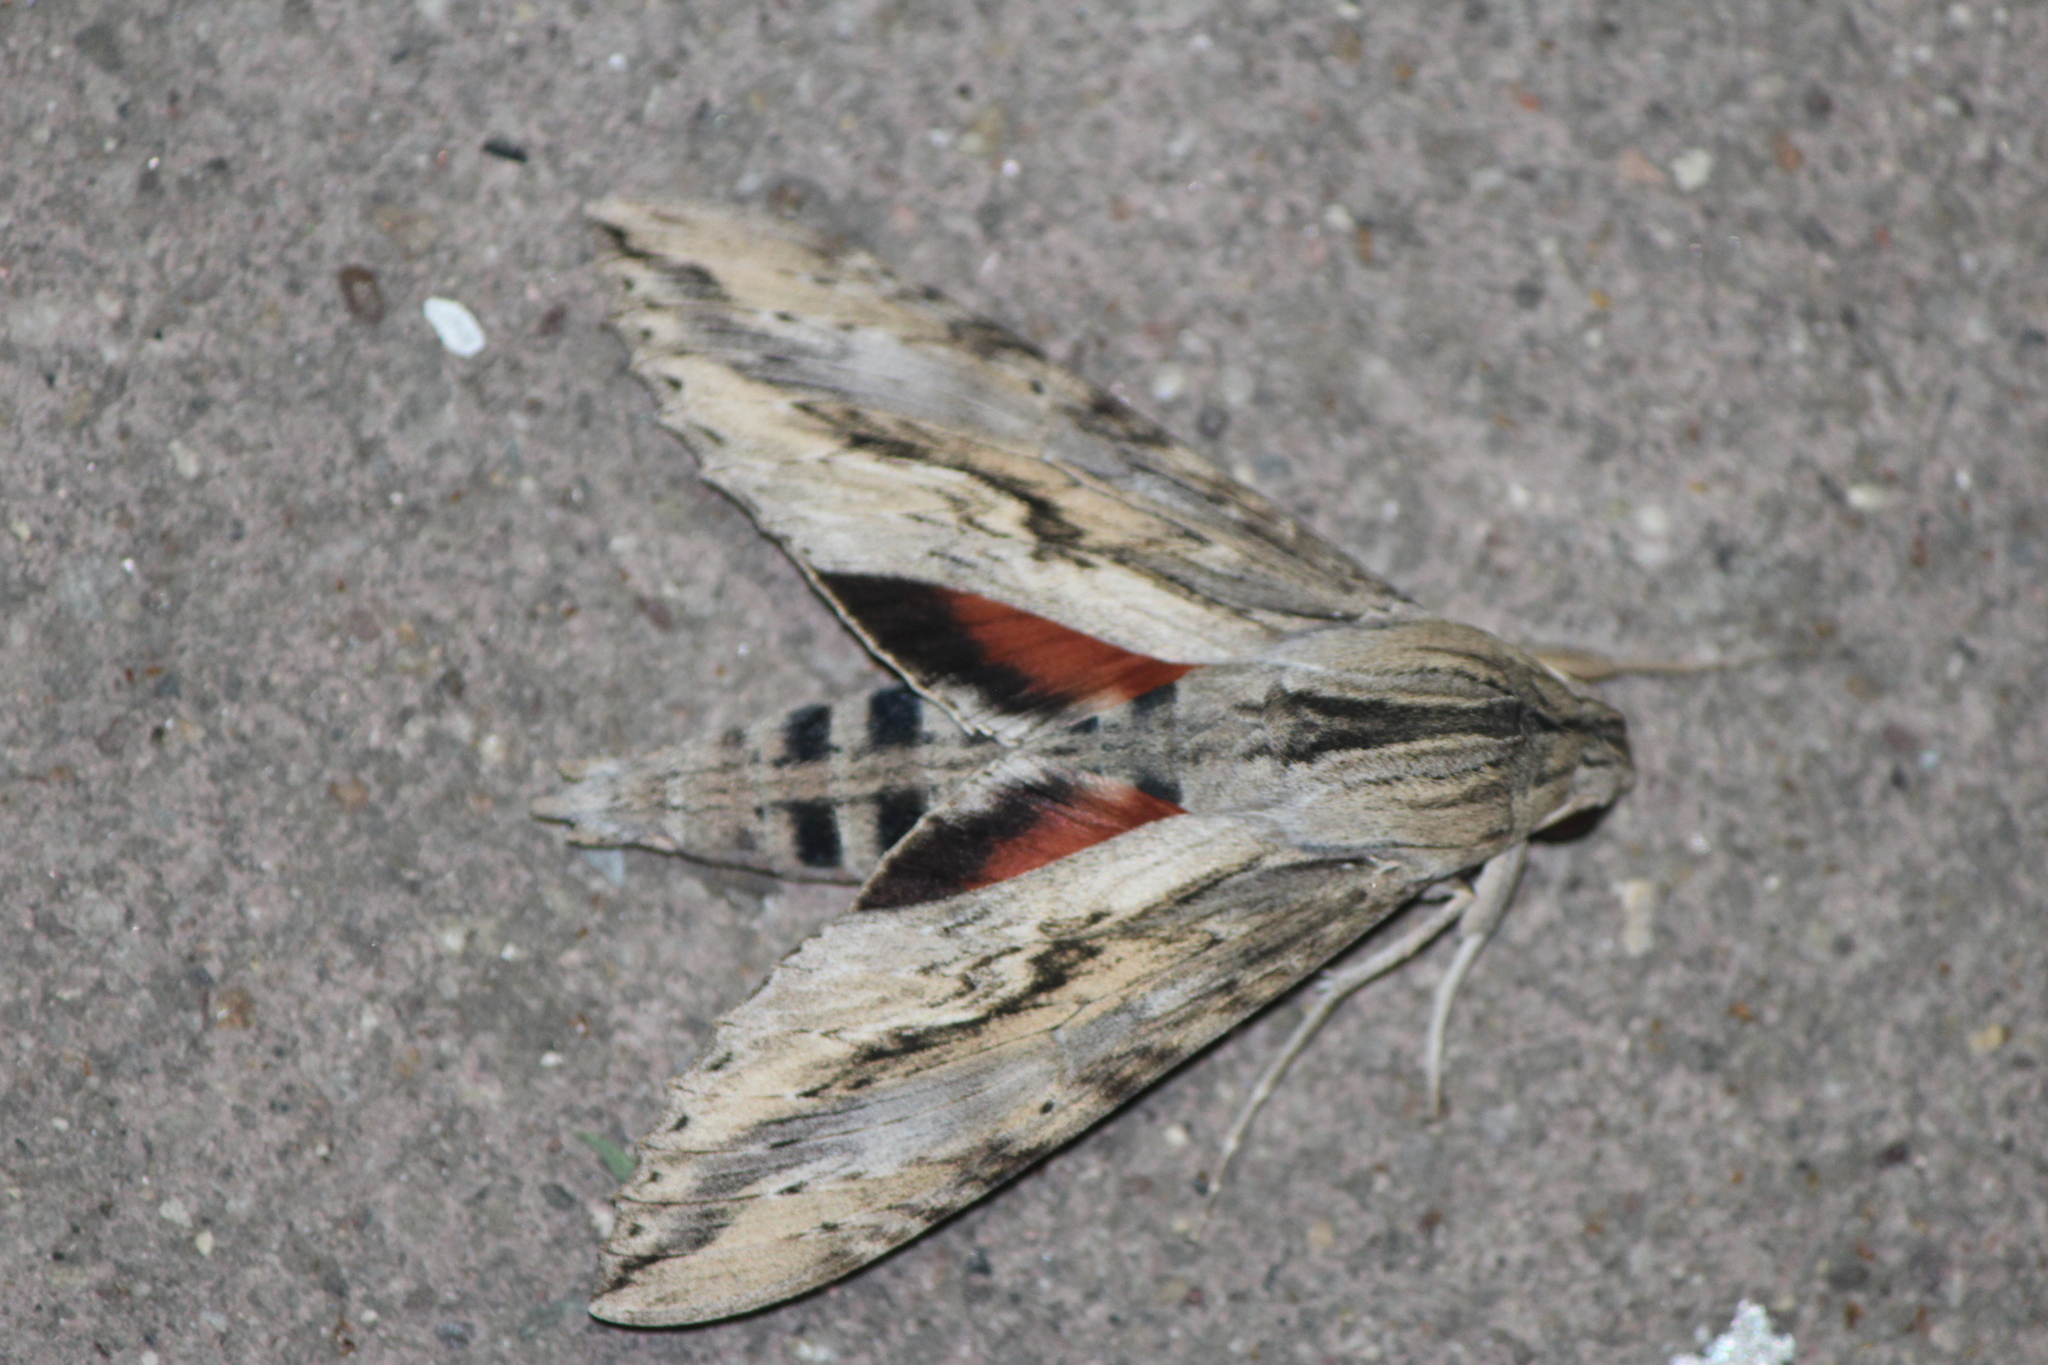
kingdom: Animalia
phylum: Arthropoda
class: Insecta
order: Lepidoptera
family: Sphingidae
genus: Erinnyis
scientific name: Erinnyis ello
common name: Ello sphinx
